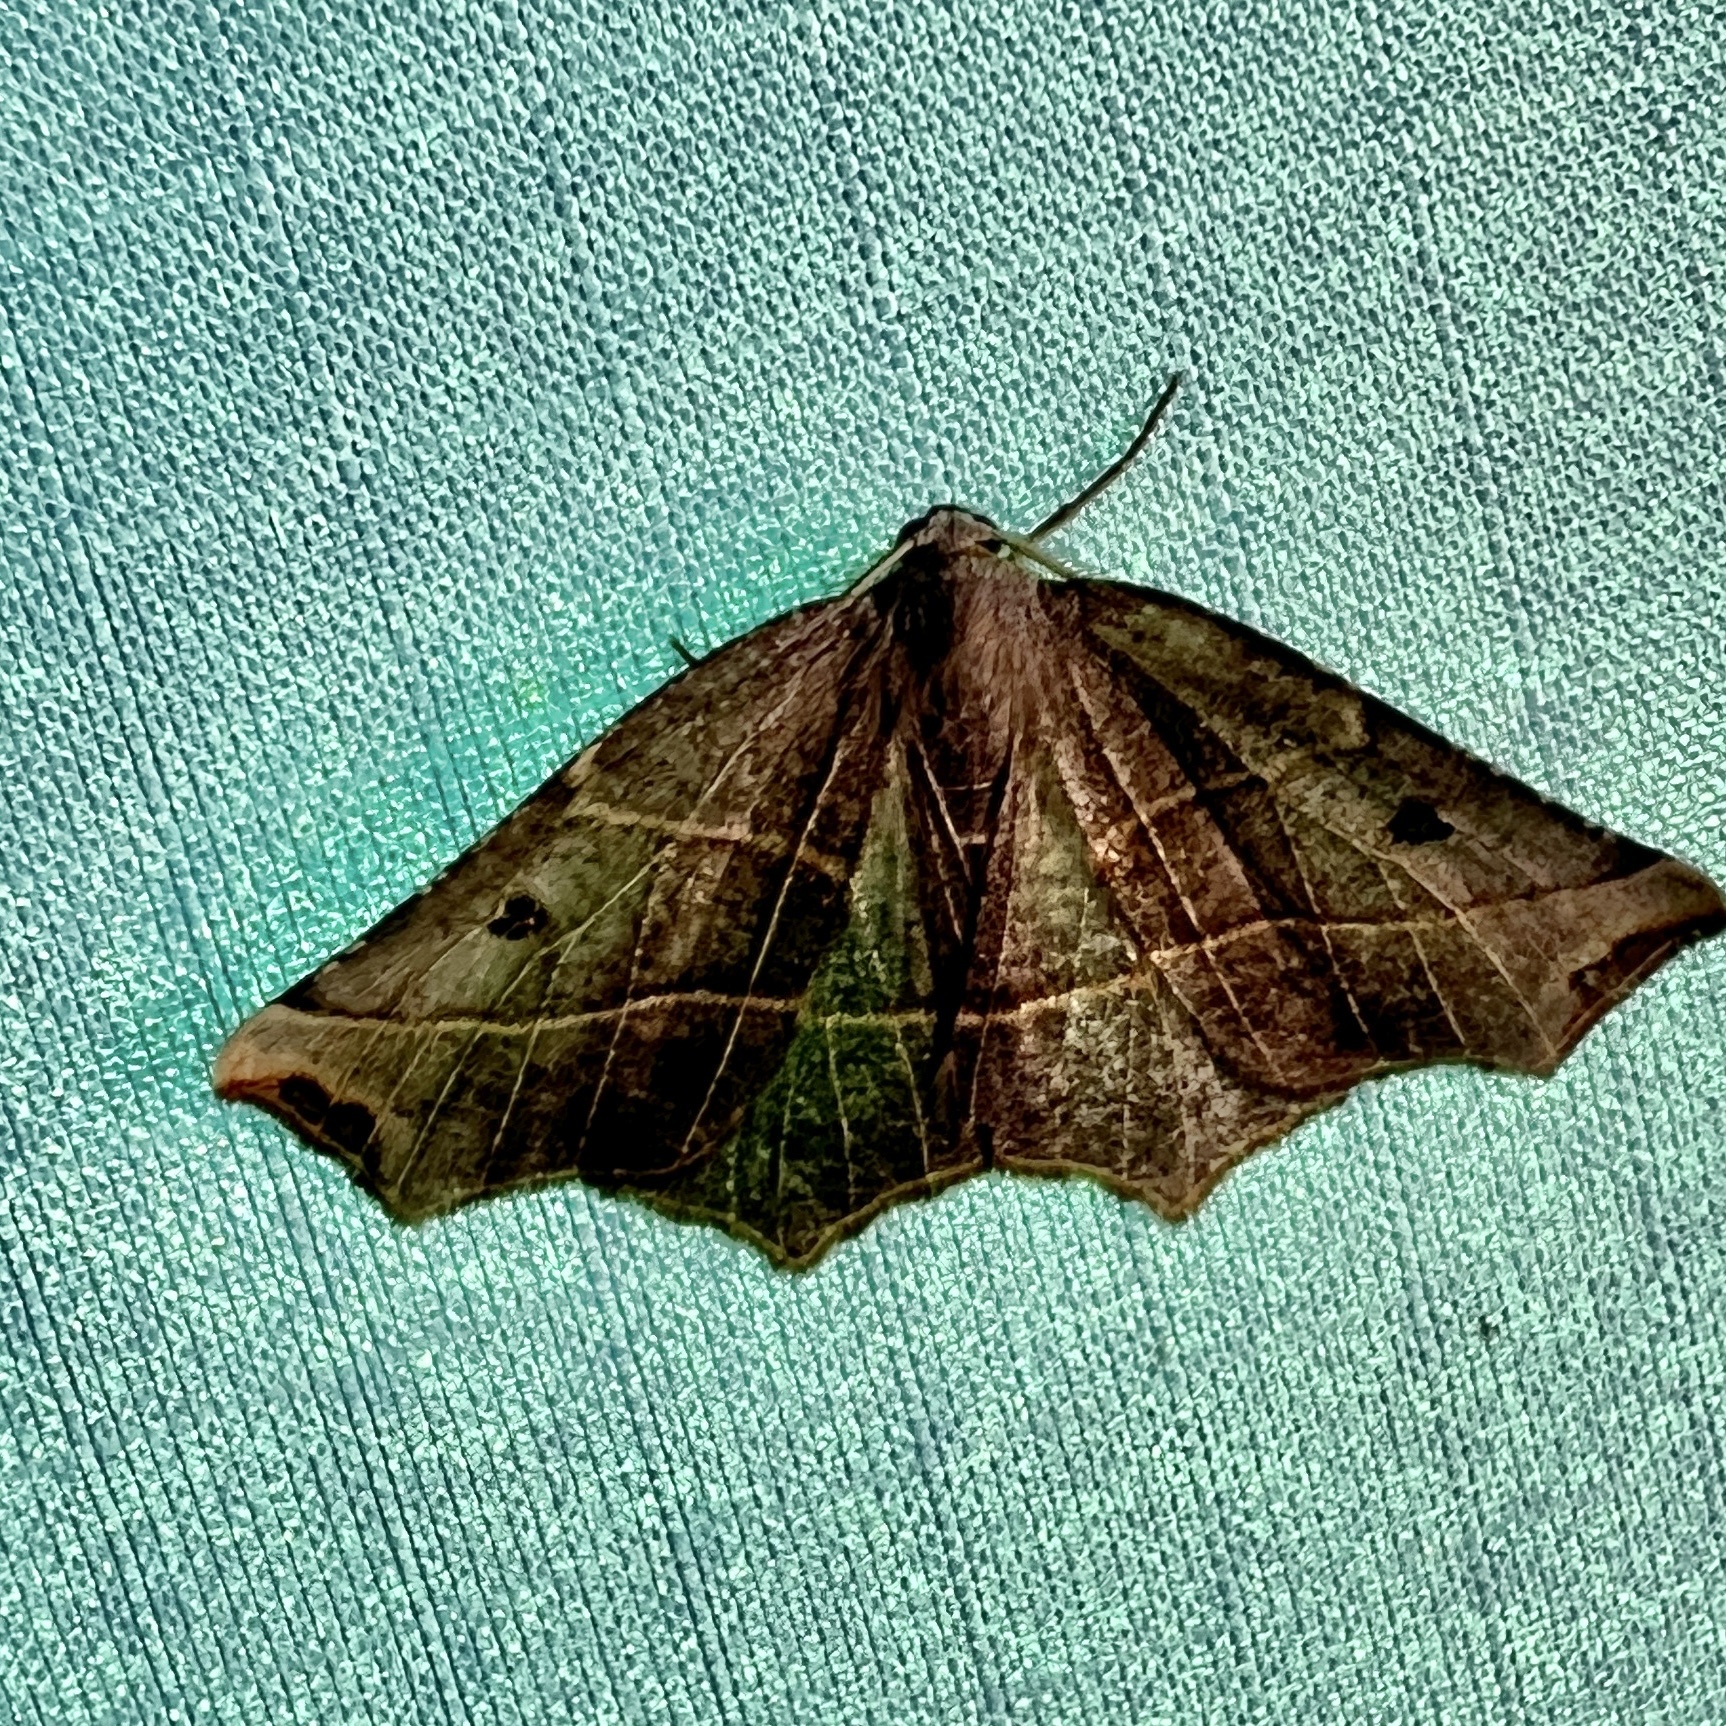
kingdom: Animalia
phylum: Arthropoda
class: Insecta
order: Lepidoptera
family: Geometridae
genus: Metanema
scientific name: Metanema inatomaria
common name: Pale metanema
